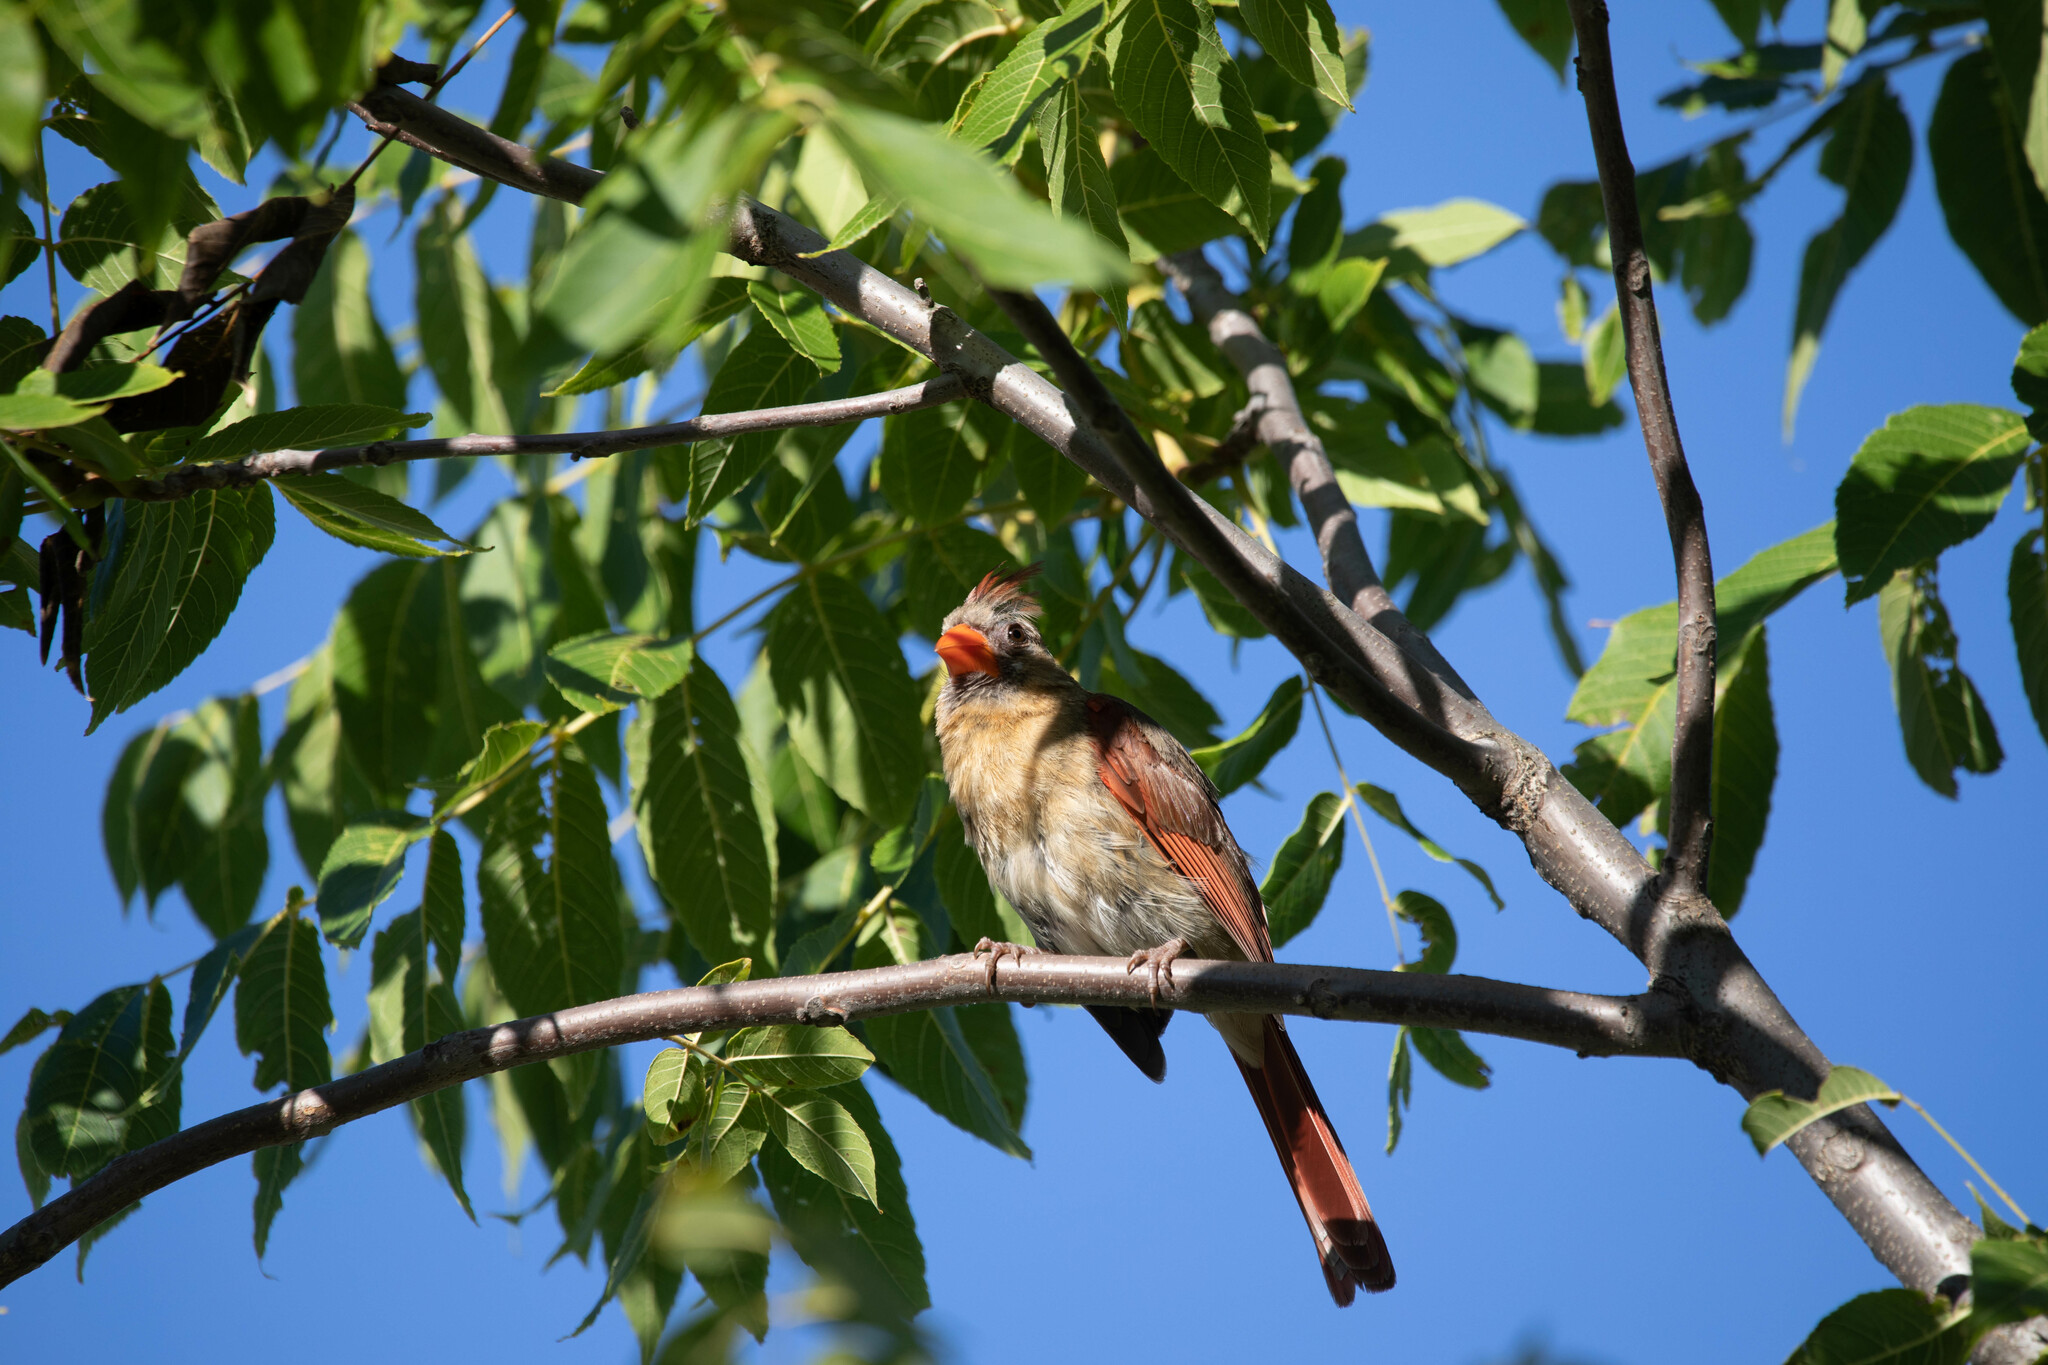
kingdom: Animalia
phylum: Chordata
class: Aves
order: Passeriformes
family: Cardinalidae
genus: Cardinalis
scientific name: Cardinalis cardinalis
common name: Northern cardinal
